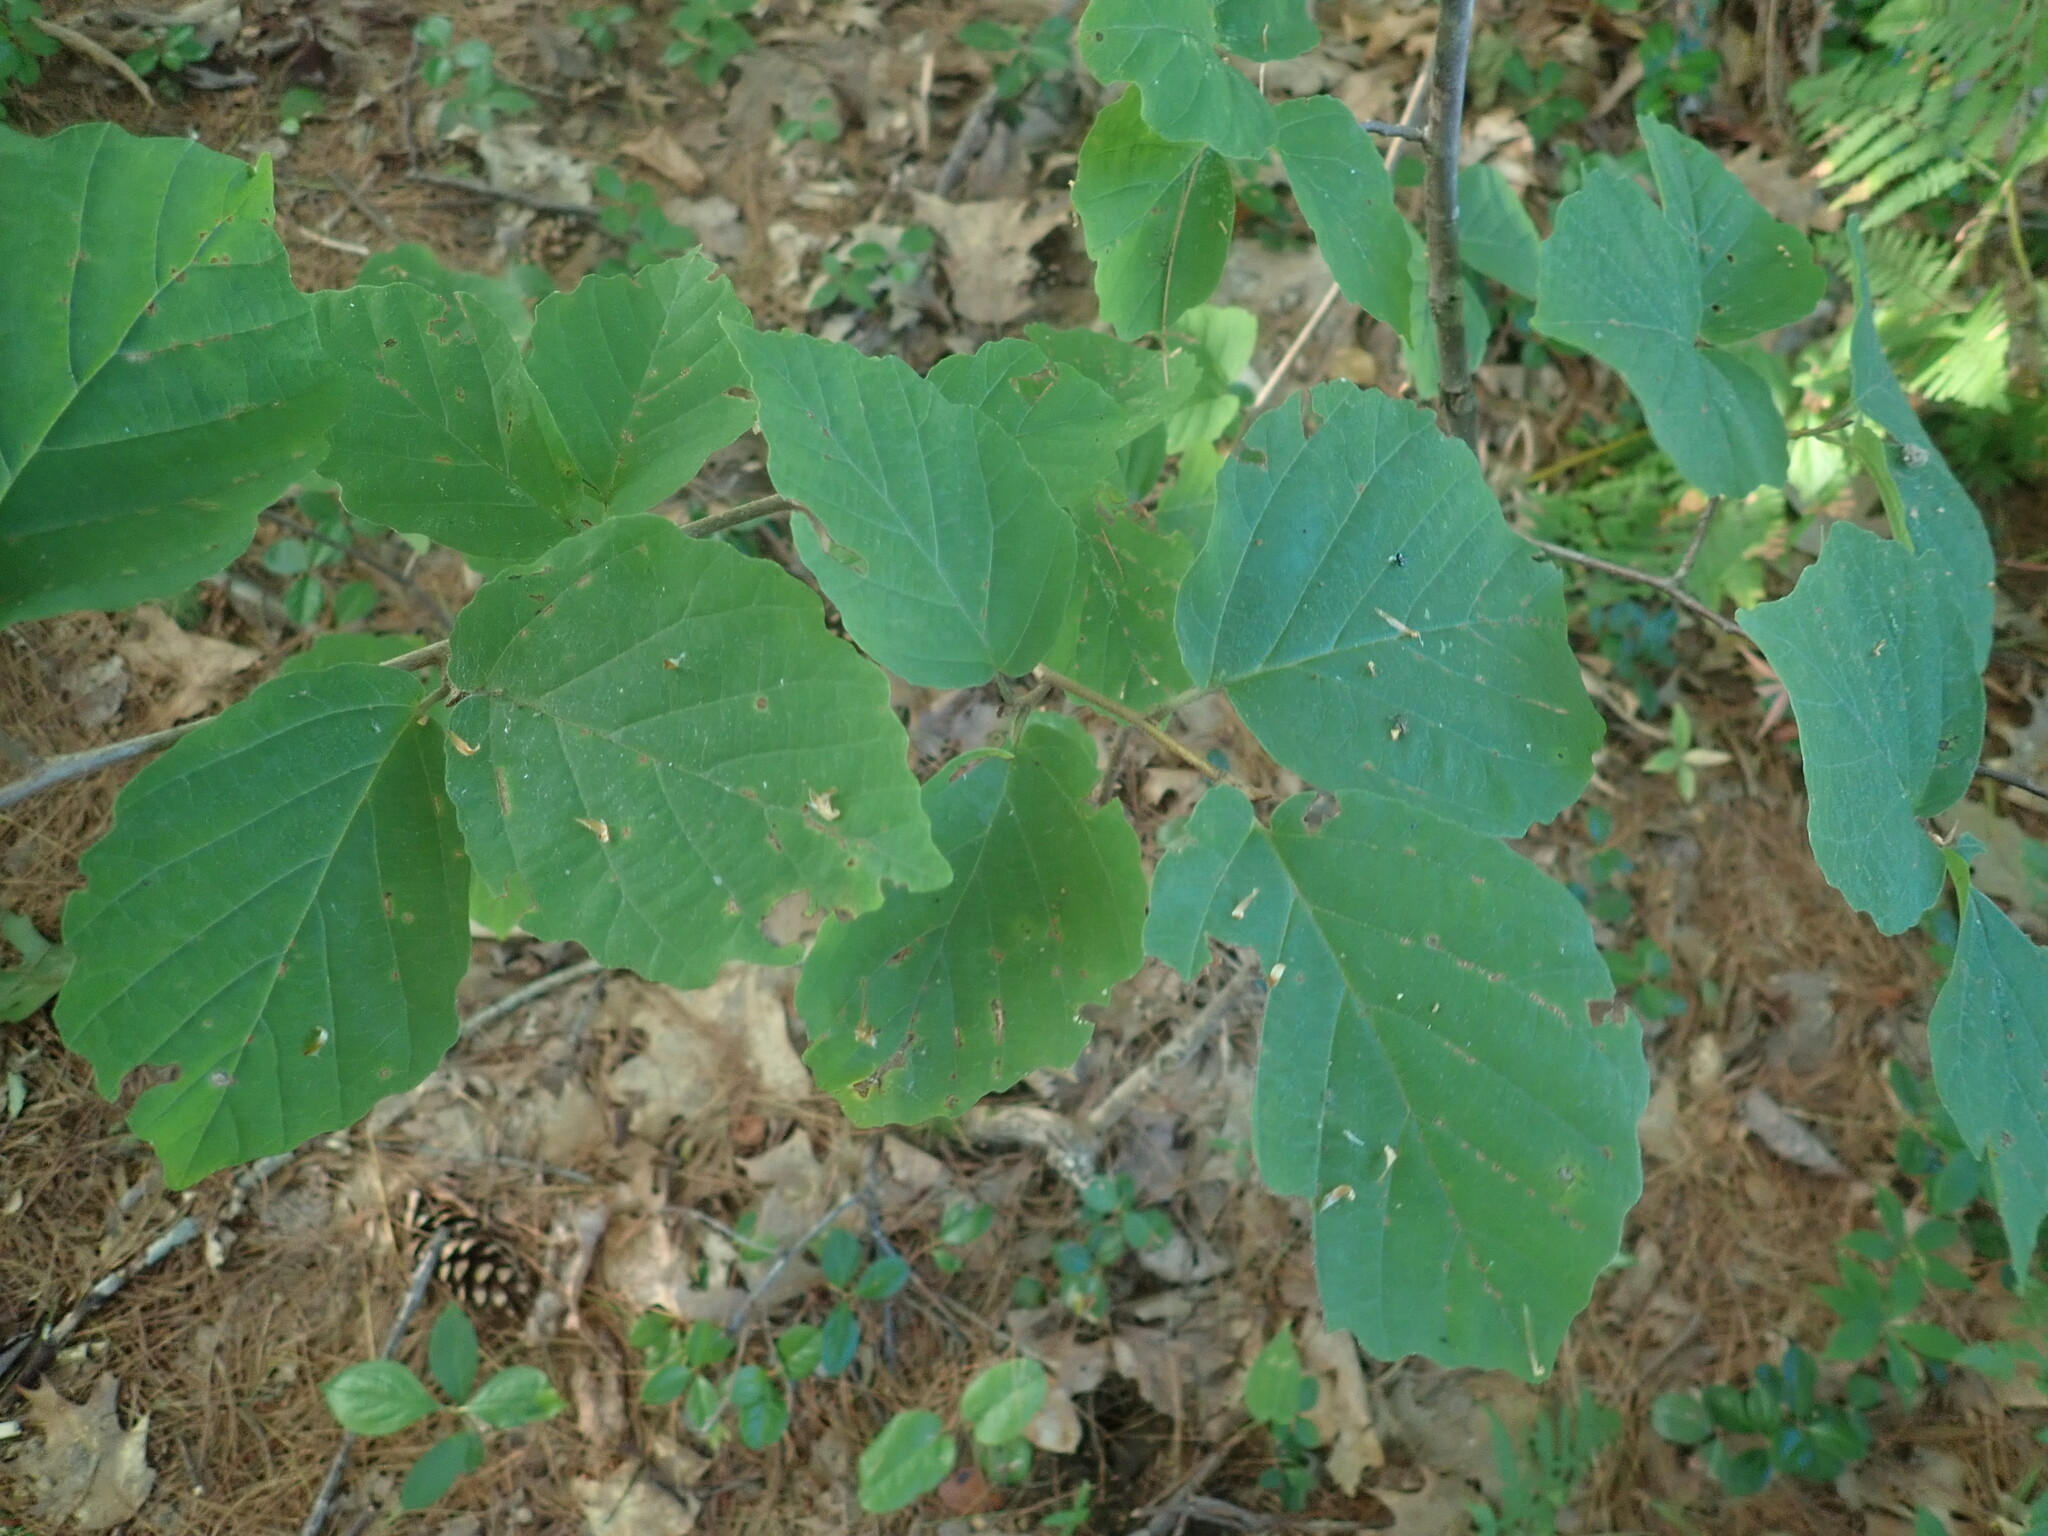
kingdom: Plantae
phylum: Tracheophyta
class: Magnoliopsida
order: Saxifragales
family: Hamamelidaceae
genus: Hamamelis
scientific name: Hamamelis virginiana
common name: Witch-hazel
